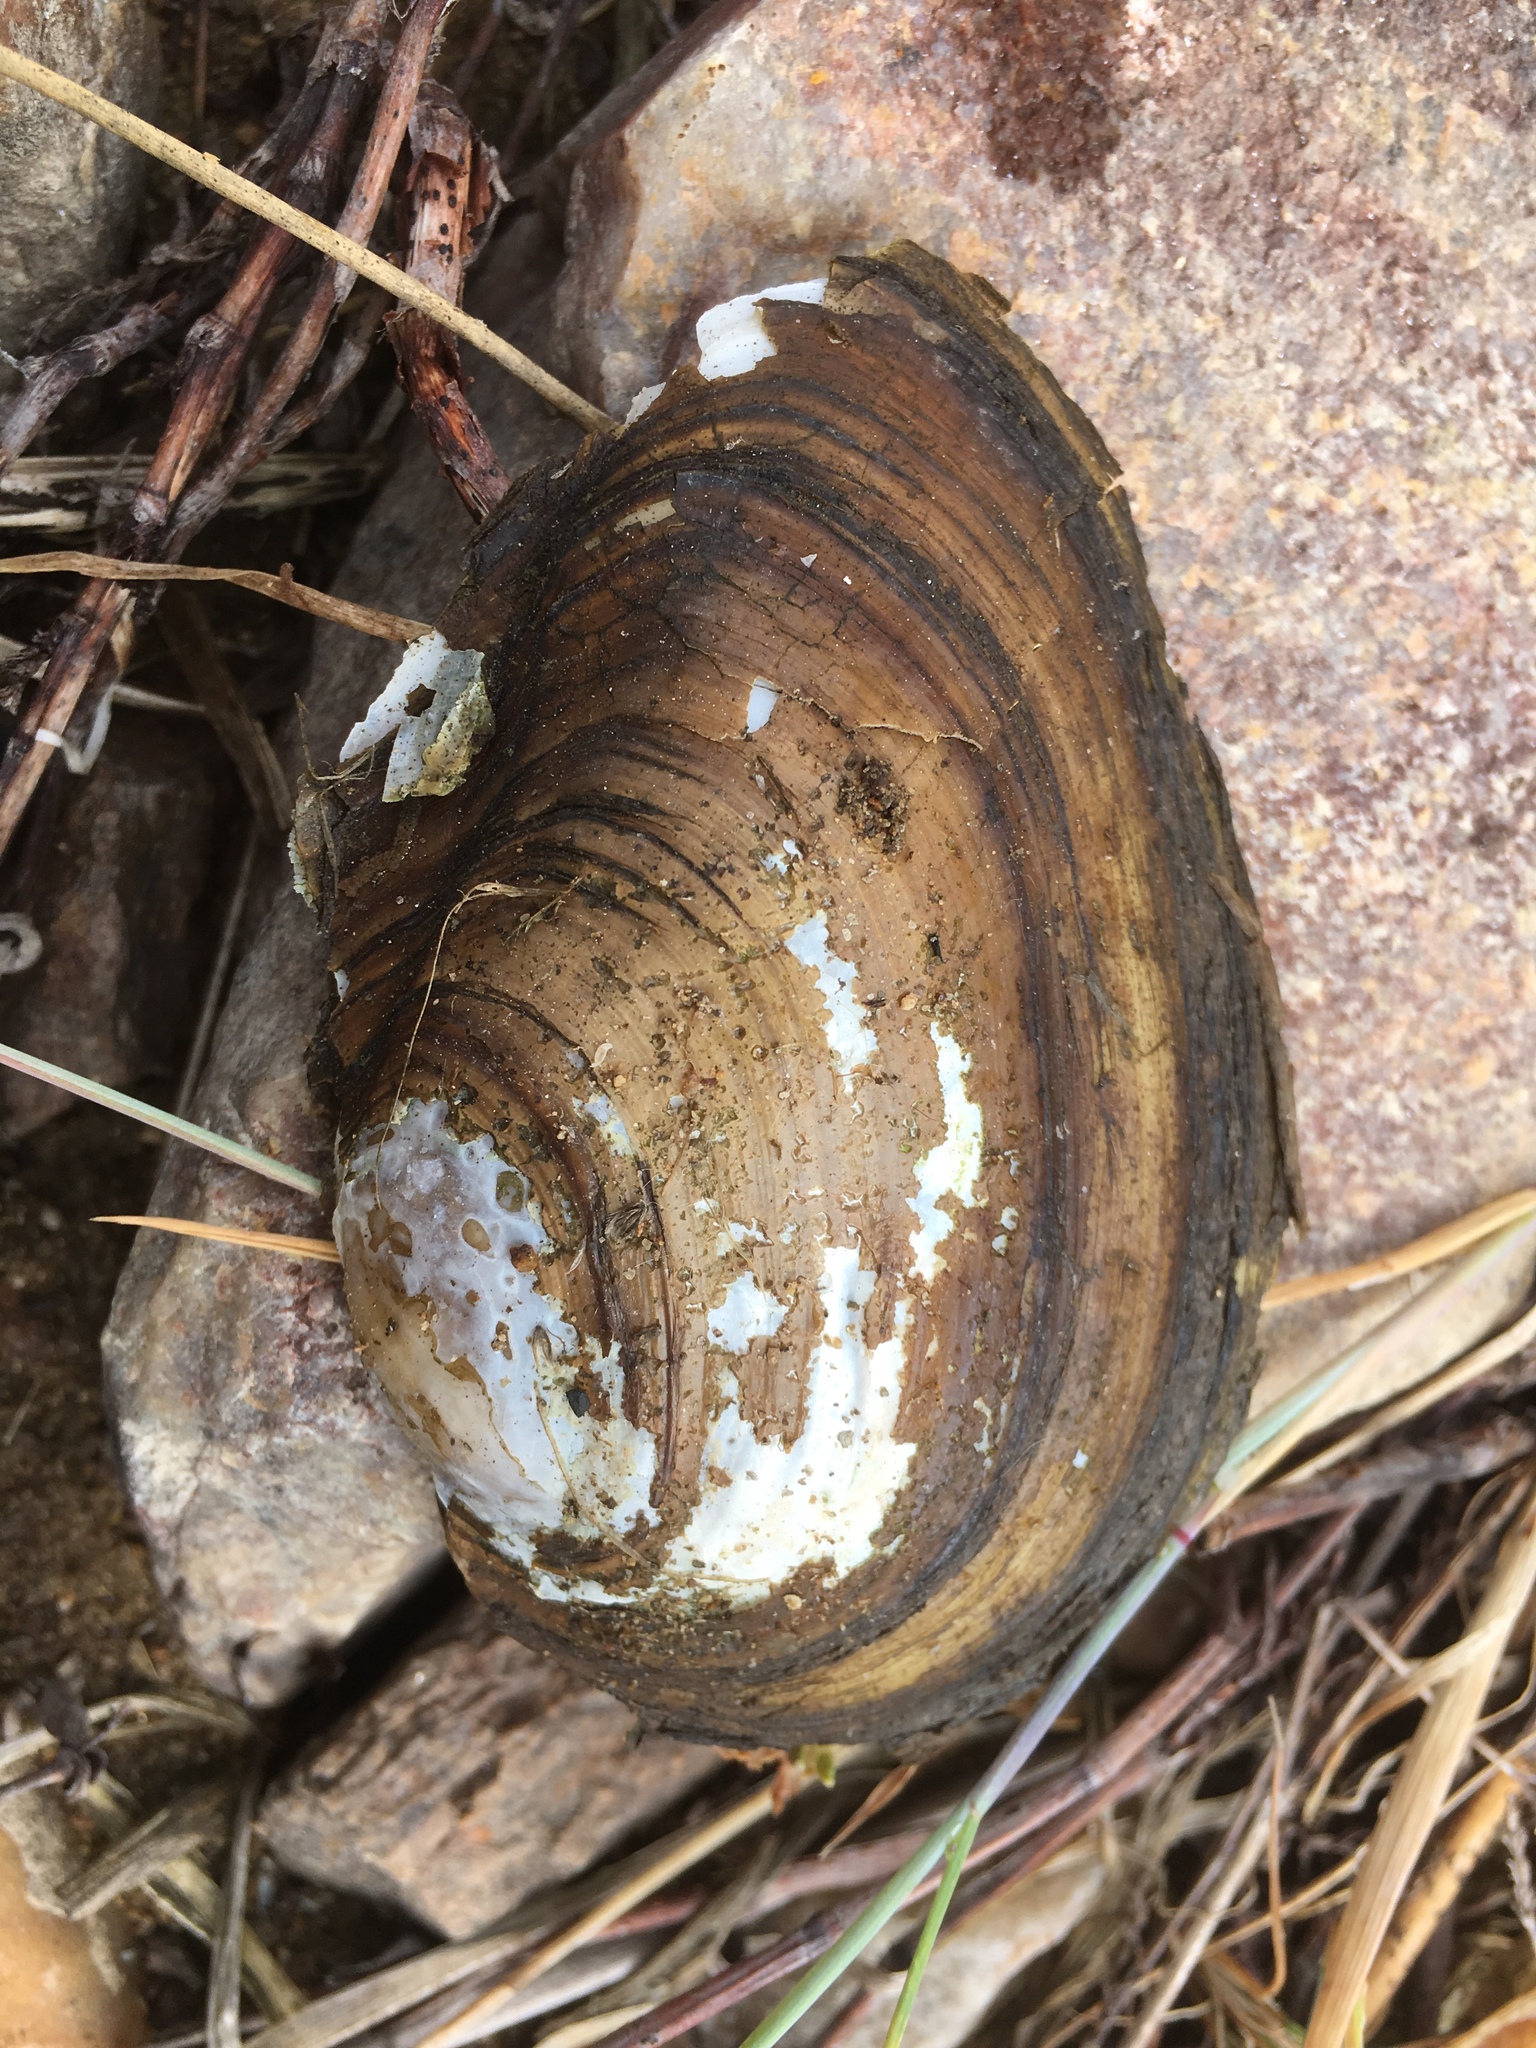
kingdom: Animalia
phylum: Mollusca
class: Bivalvia
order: Unionida
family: Unionidae
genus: Anodonta
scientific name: Anodonta anatina
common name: Duck mussel
